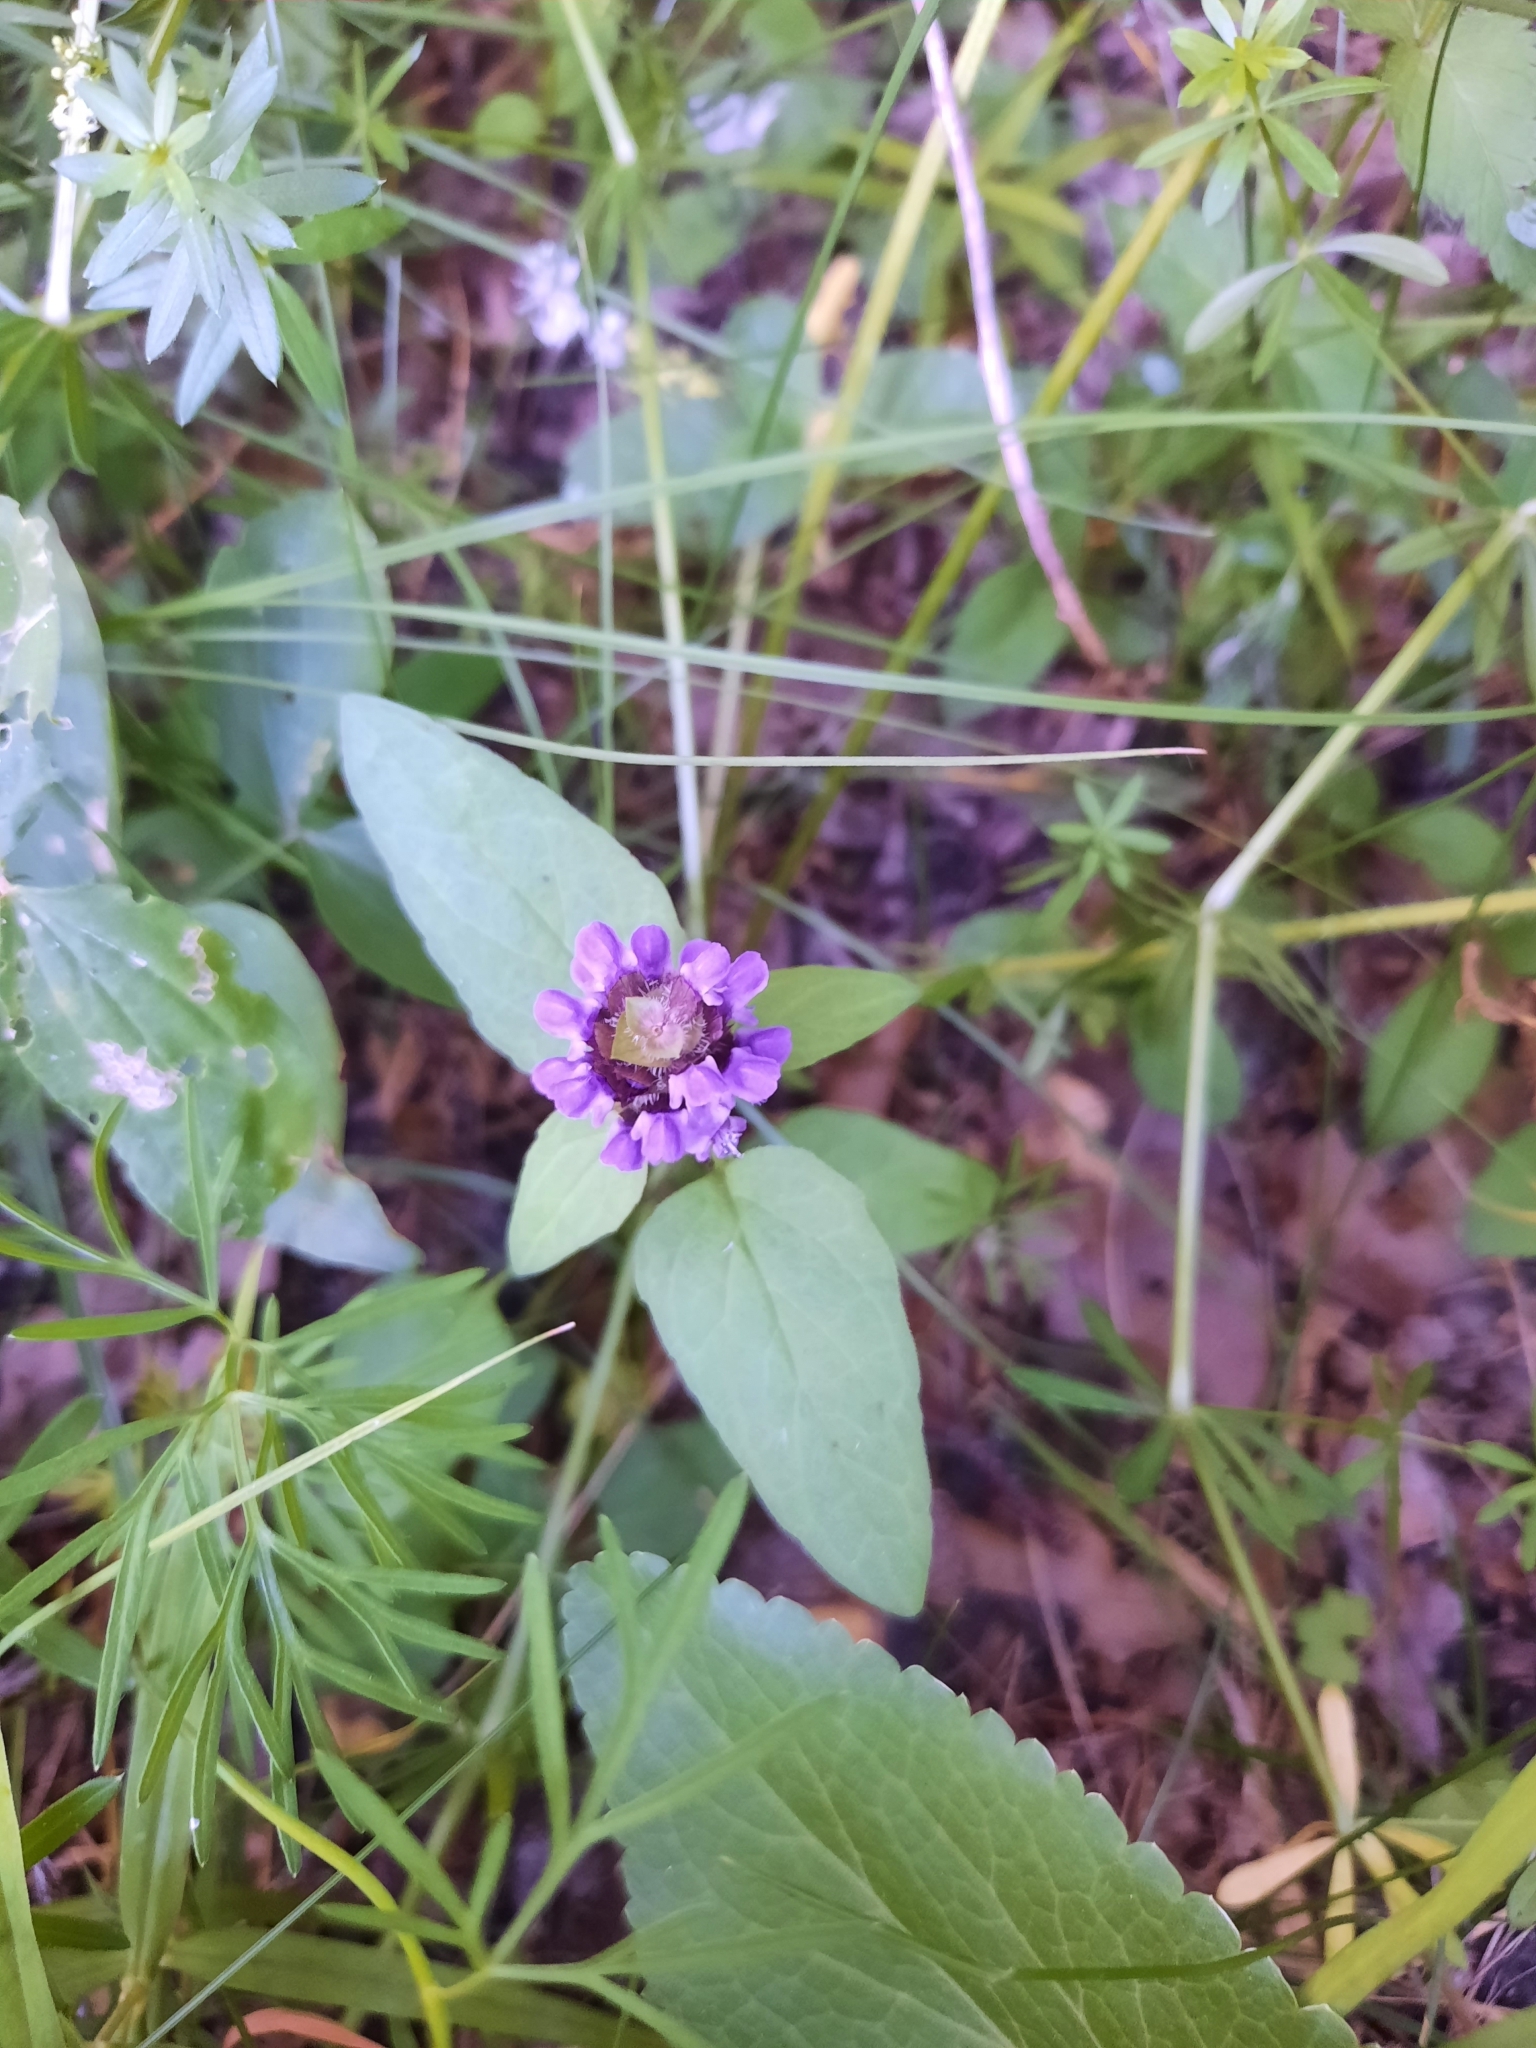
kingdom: Plantae
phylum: Tracheophyta
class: Magnoliopsida
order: Lamiales
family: Lamiaceae
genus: Prunella
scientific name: Prunella vulgaris
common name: Heal-all
